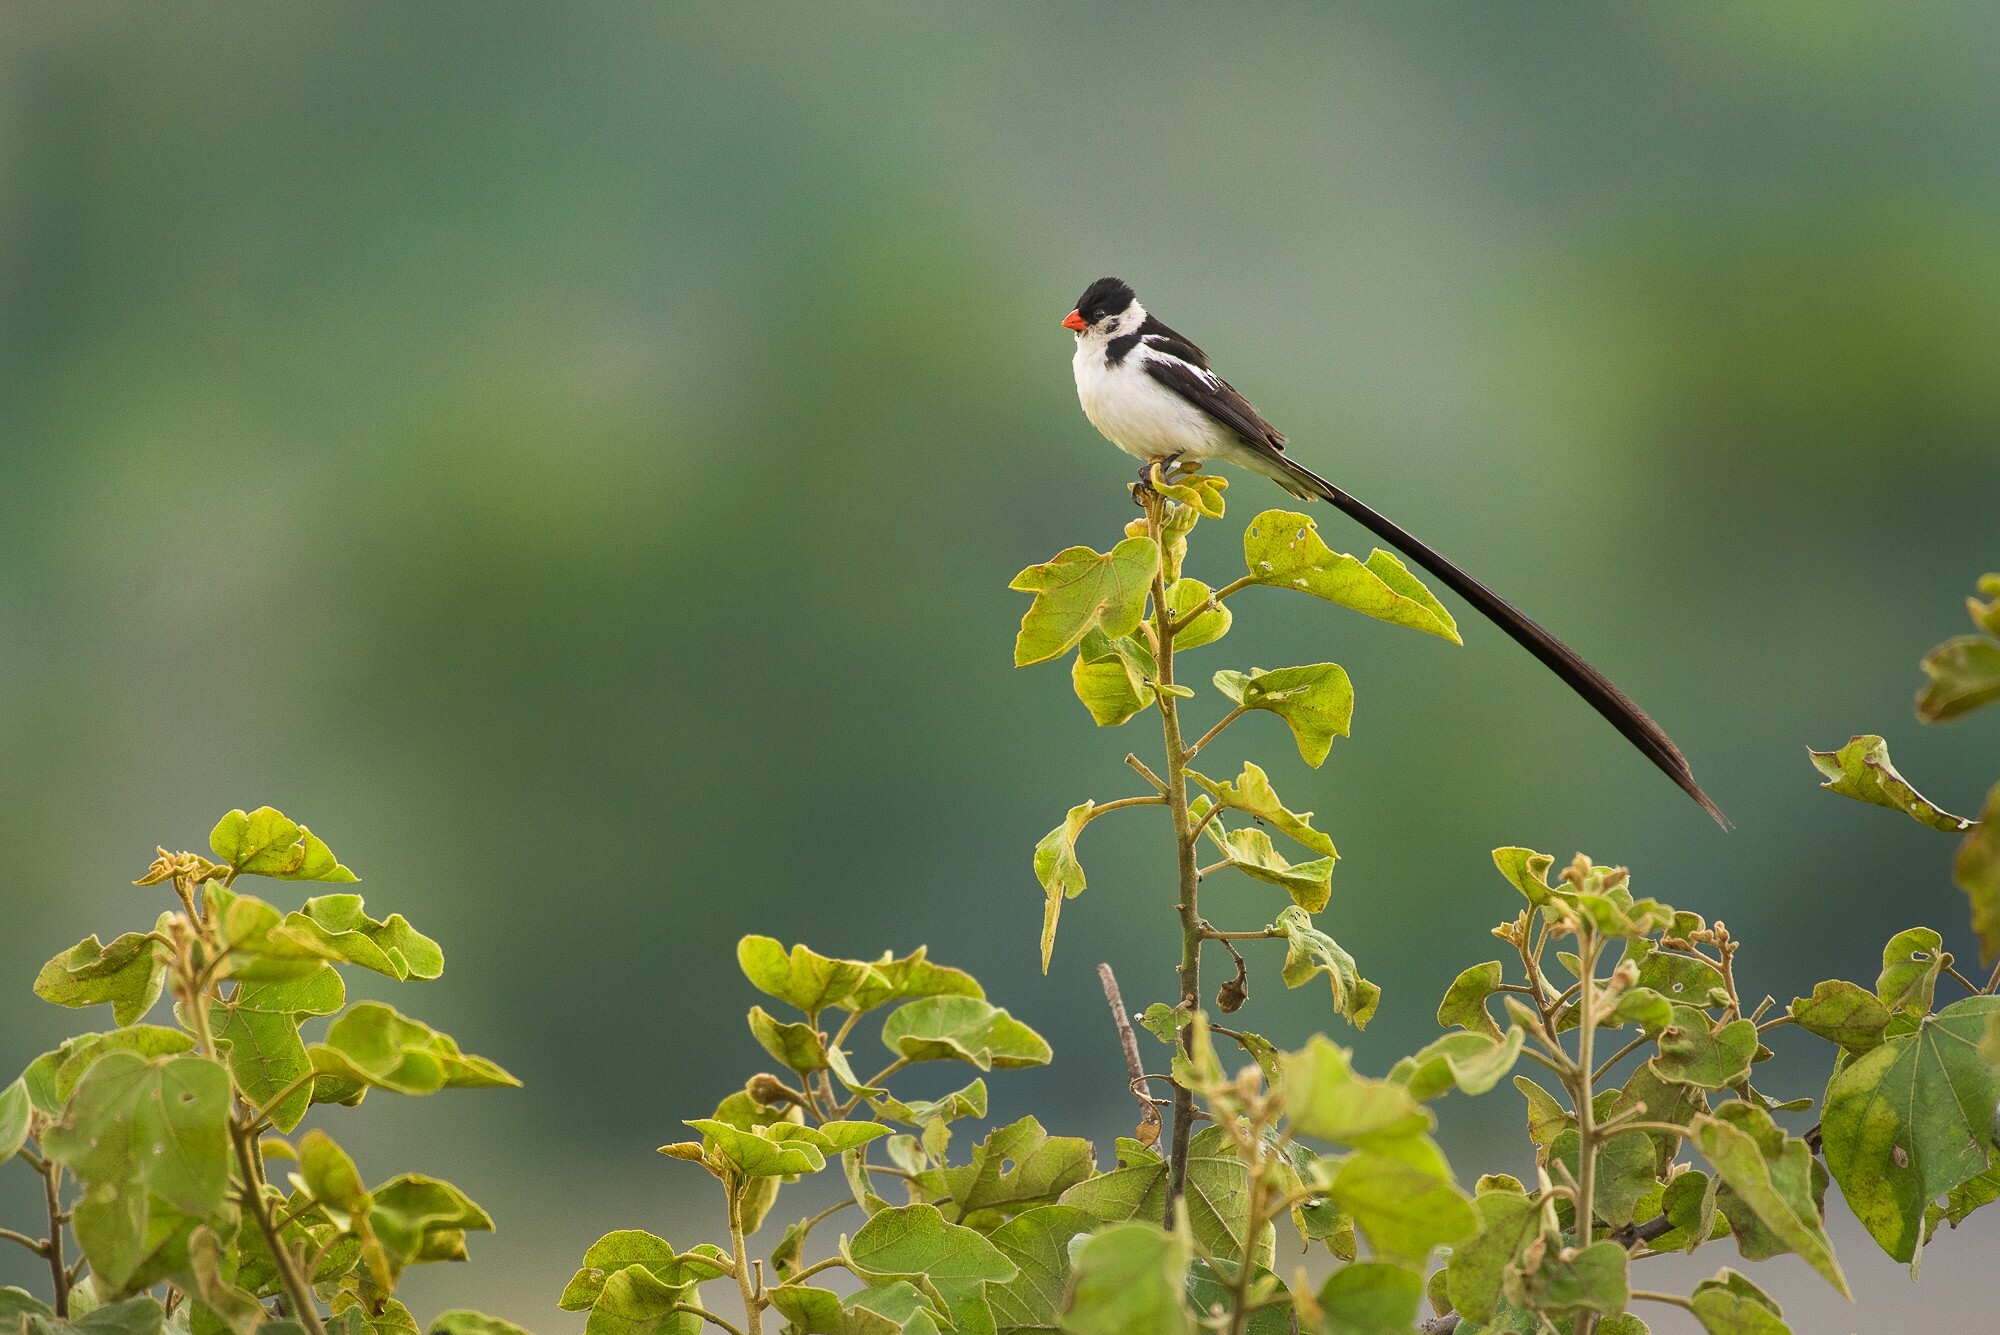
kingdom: Animalia
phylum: Chordata
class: Aves
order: Passeriformes
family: Viduidae
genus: Vidua
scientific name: Vidua macroura
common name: Pin-tailed whydah
